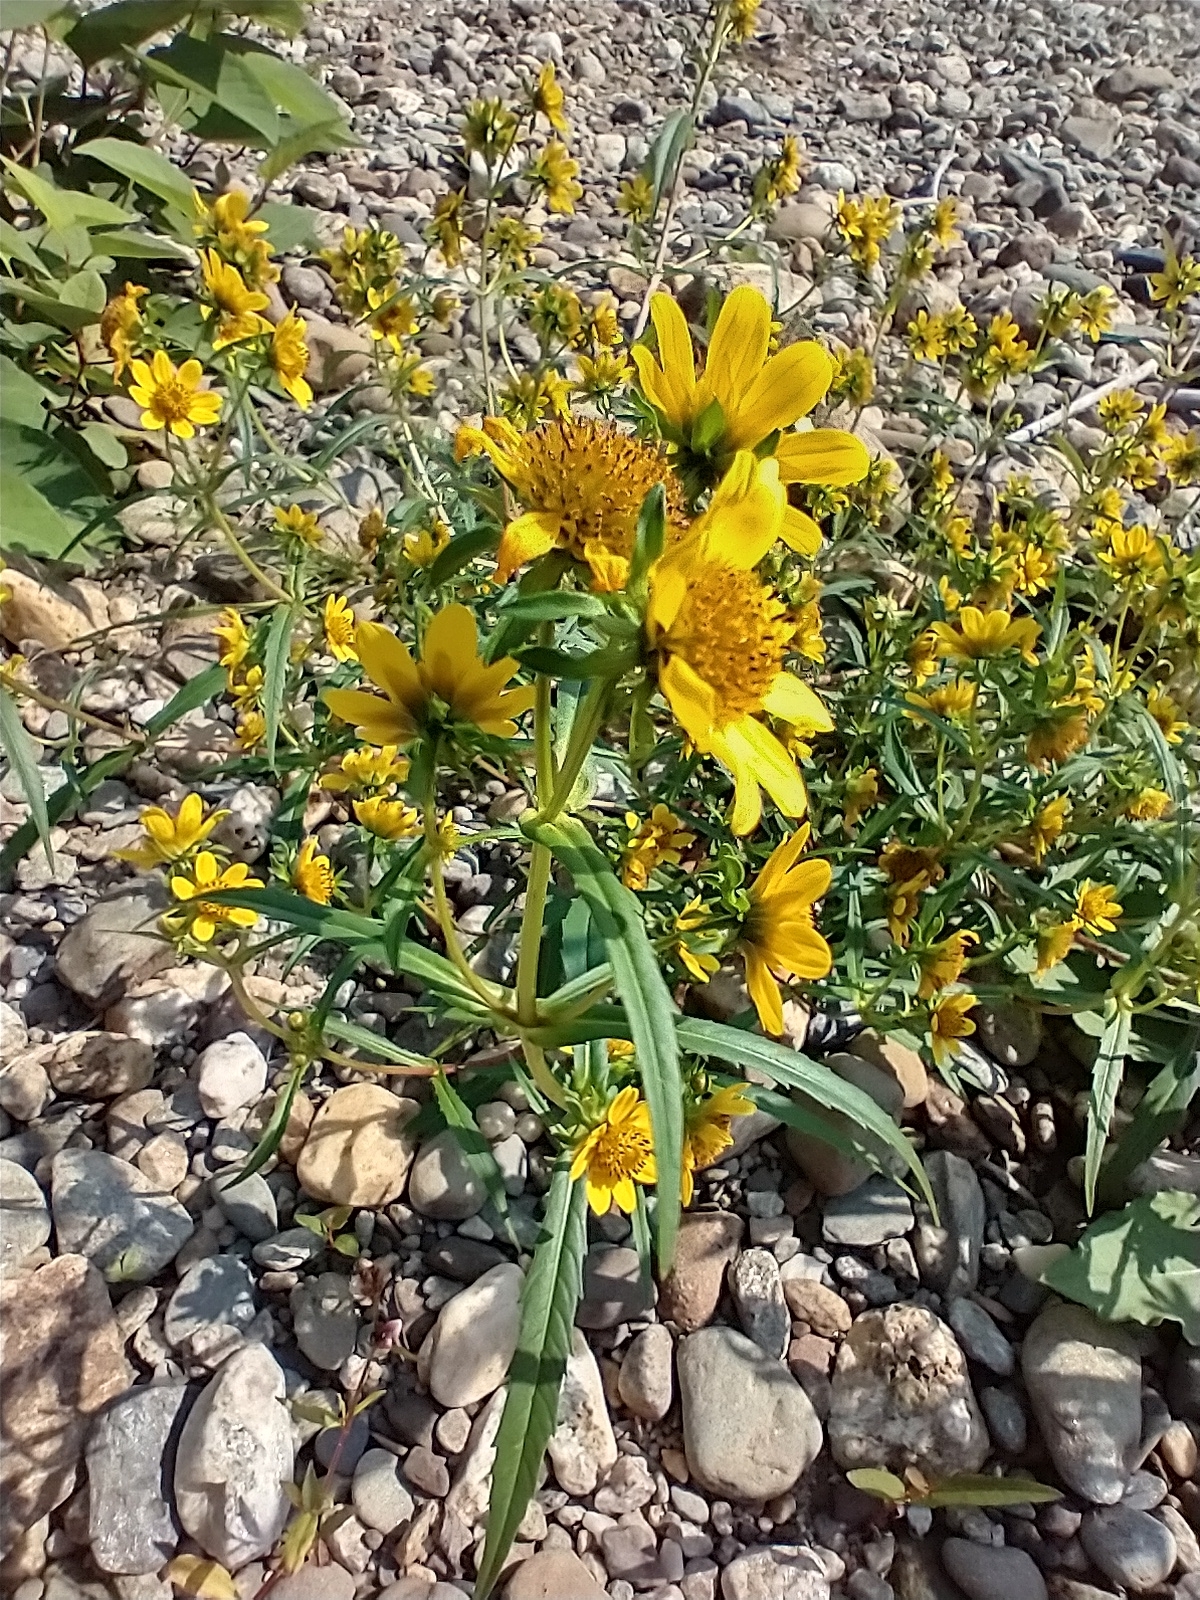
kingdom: Plantae
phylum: Tracheophyta
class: Magnoliopsida
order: Asterales
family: Asteraceae
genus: Bidens
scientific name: Bidens cernua
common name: Nodding bur-marigold
